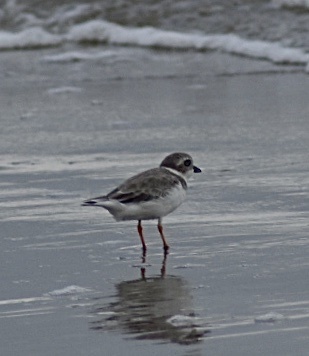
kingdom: Animalia
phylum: Chordata
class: Aves
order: Charadriiformes
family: Charadriidae
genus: Charadrius
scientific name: Charadrius melodus
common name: Piping plover
